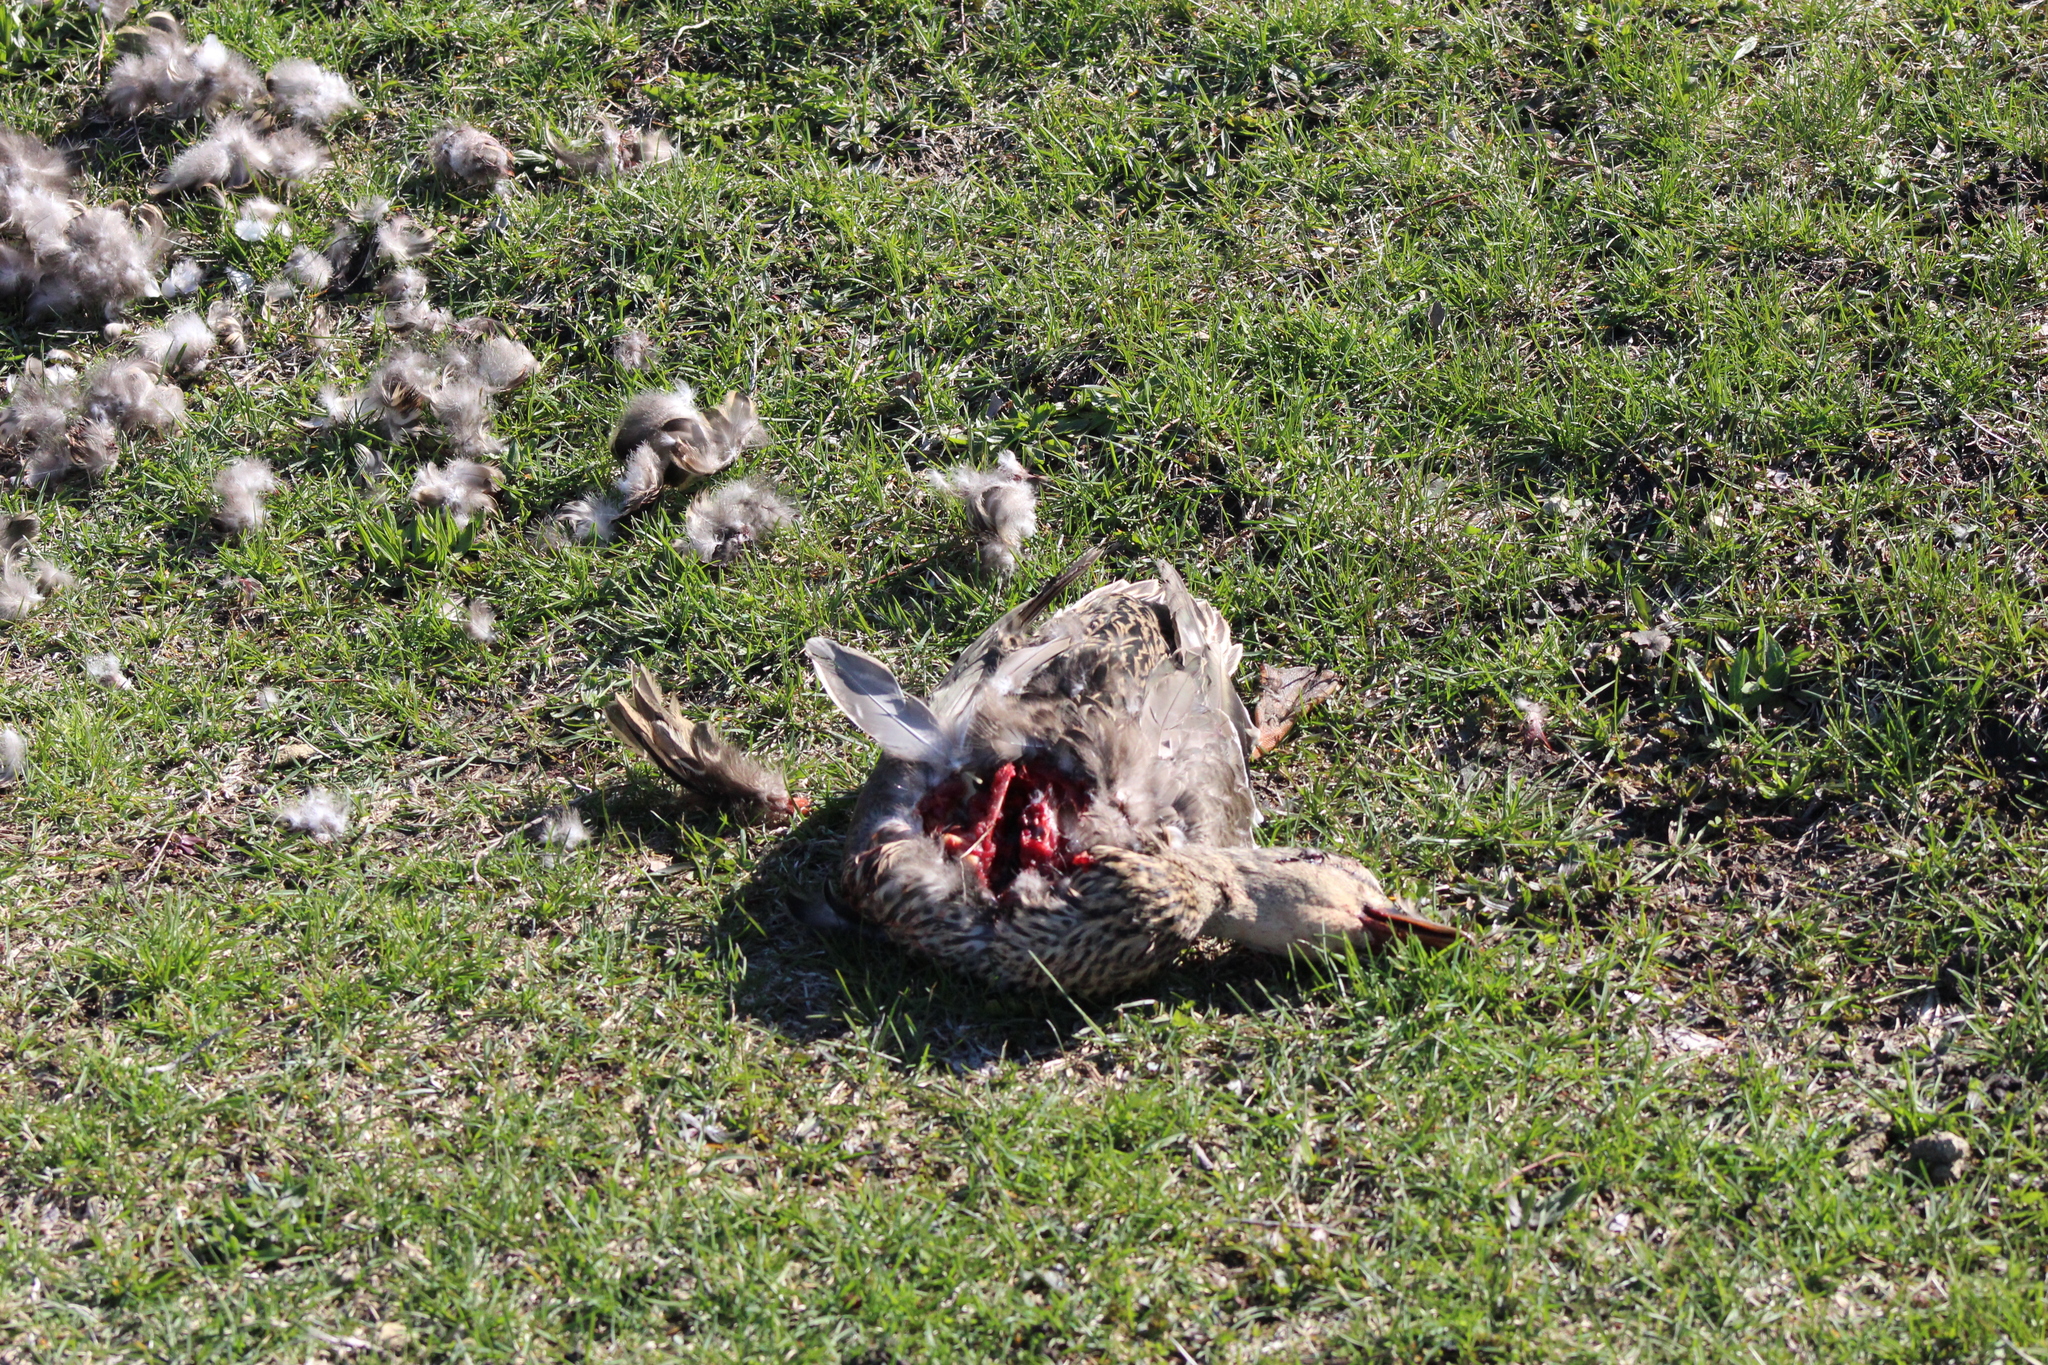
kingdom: Animalia
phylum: Chordata
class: Aves
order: Anseriformes
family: Anatidae
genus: Anas
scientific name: Anas platyrhynchos
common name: Mallard
